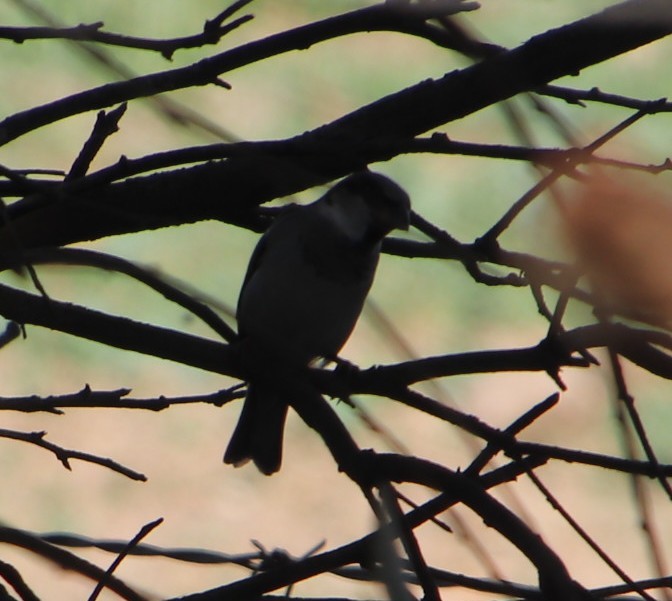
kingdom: Animalia
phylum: Chordata
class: Aves
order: Passeriformes
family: Passeridae
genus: Passer
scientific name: Passer domesticus
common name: House sparrow
